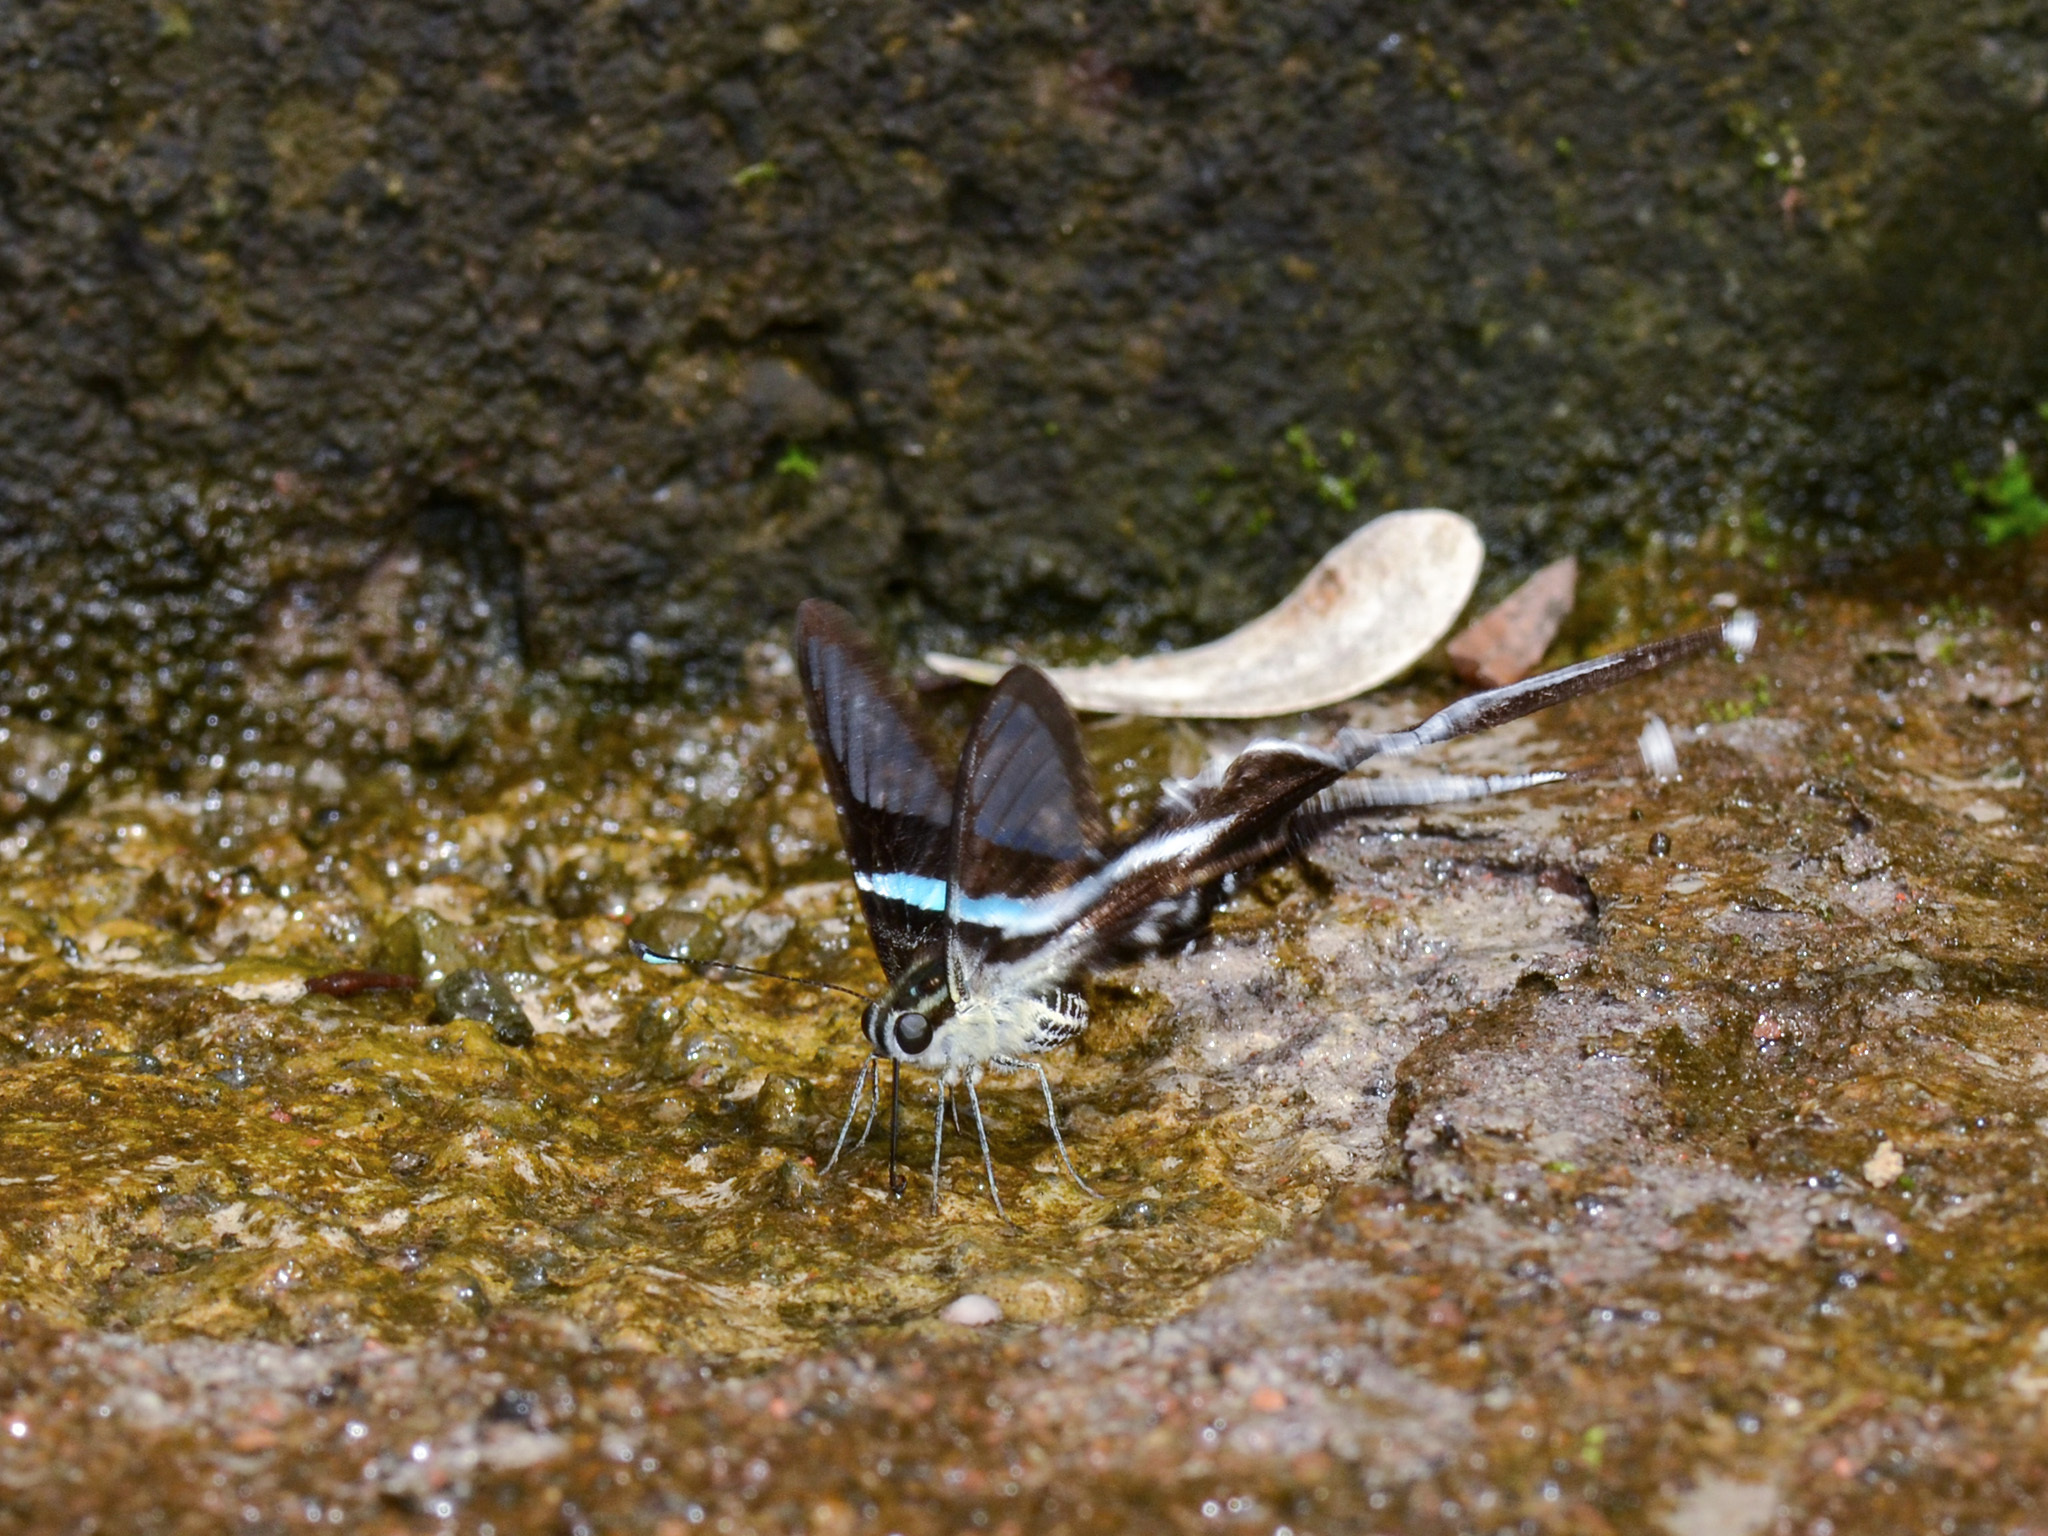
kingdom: Animalia
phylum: Arthropoda
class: Insecta
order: Lepidoptera
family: Papilionidae
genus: Lamproptera
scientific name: Lamproptera meges
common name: Green dragontail
